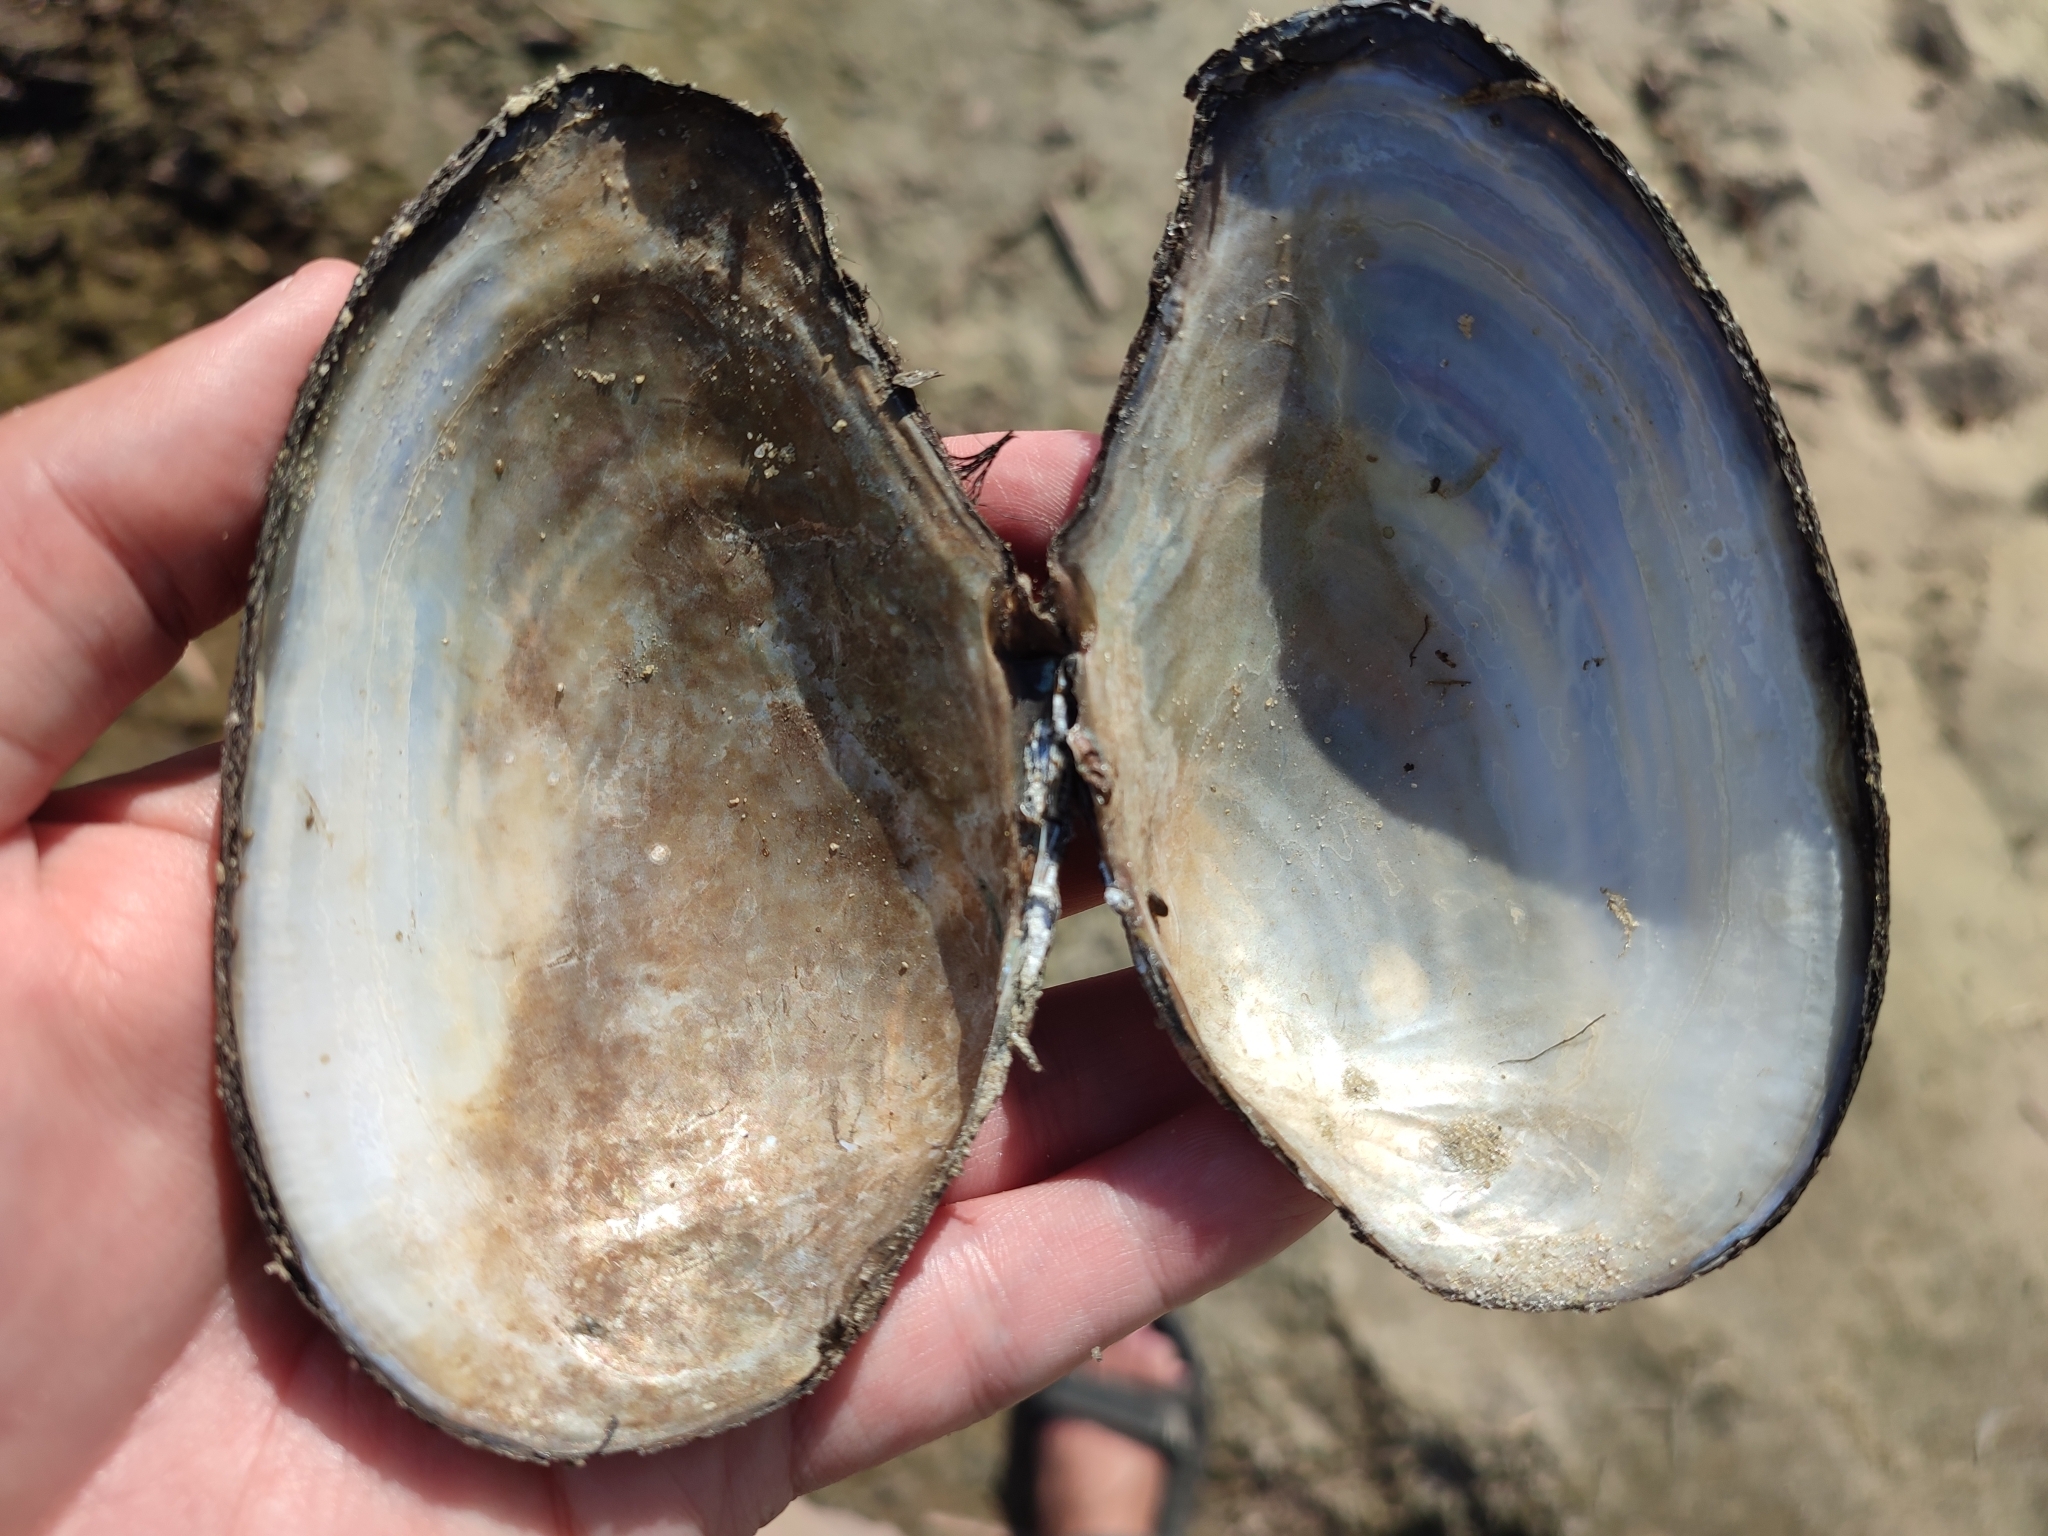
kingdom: Animalia
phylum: Mollusca
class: Bivalvia
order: Unionida
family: Unionidae
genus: Anodonta
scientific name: Anodonta anatina
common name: Duck mussel
